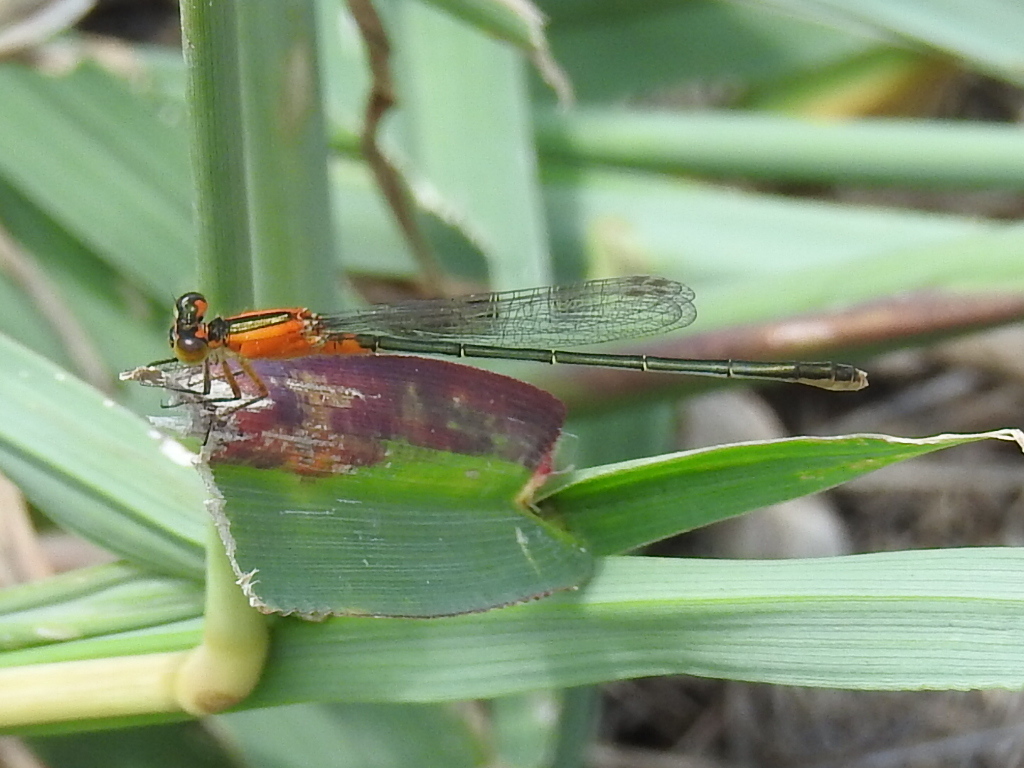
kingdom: Animalia
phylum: Arthropoda
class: Insecta
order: Odonata
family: Coenagrionidae
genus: Ischnura
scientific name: Ischnura ramburii
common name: Rambur's forktail
